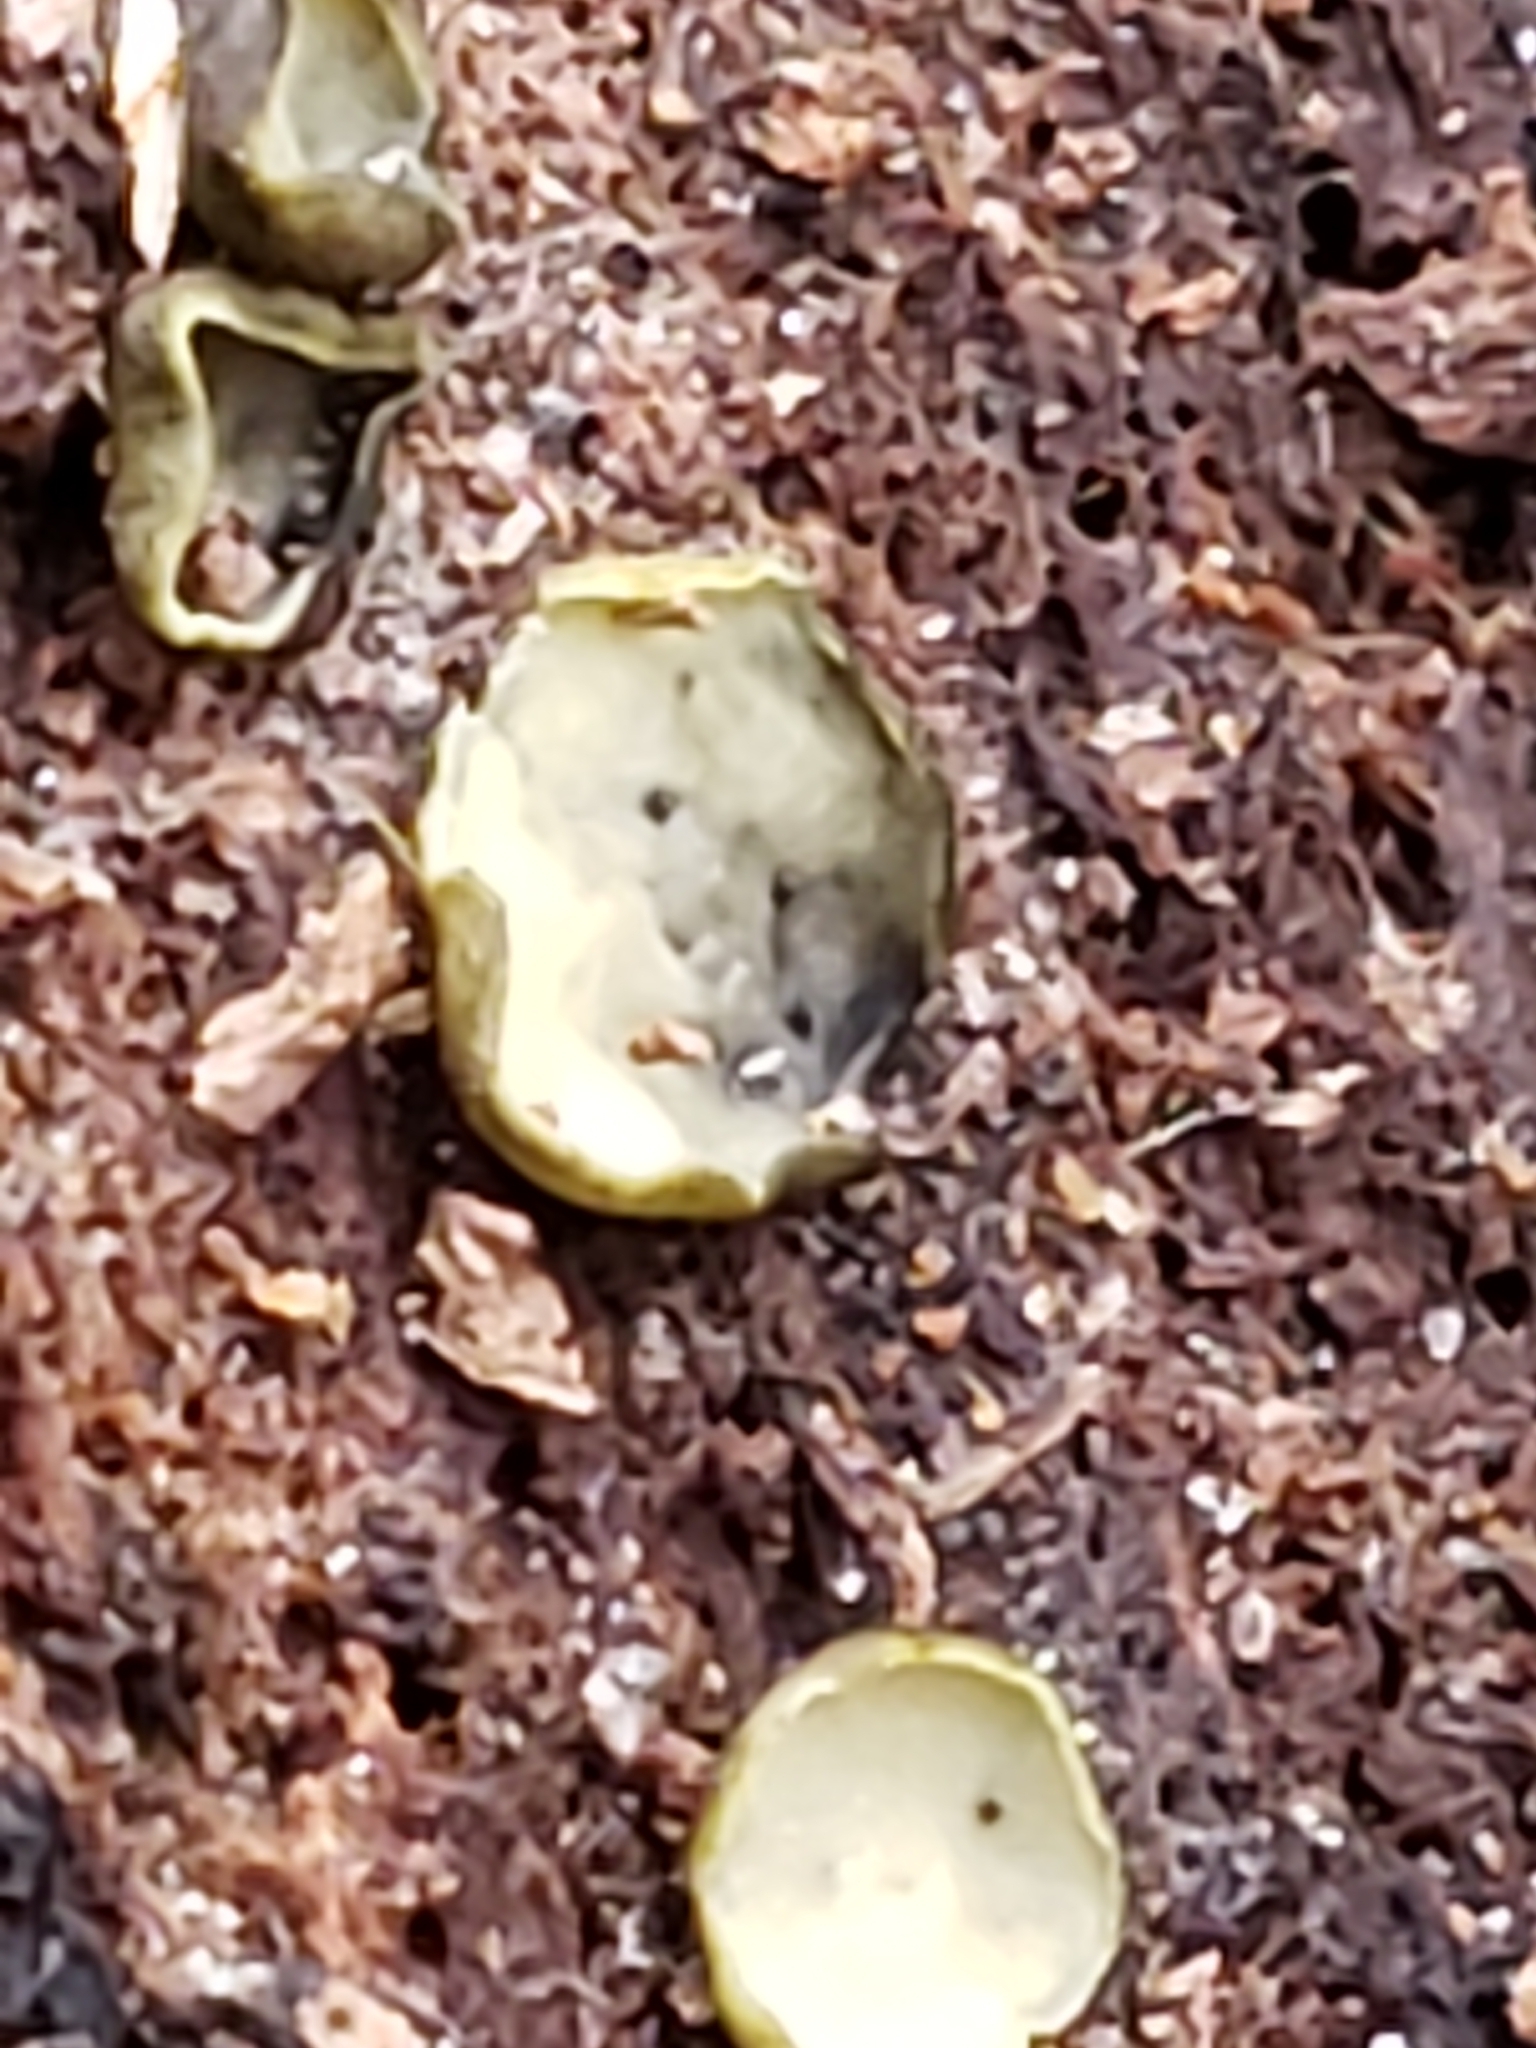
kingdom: Fungi
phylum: Ascomycota
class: Leotiomycetes
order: Helotiales
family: Chlorospleniaceae
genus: Chlorosplenium
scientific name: Chlorosplenium chlora
